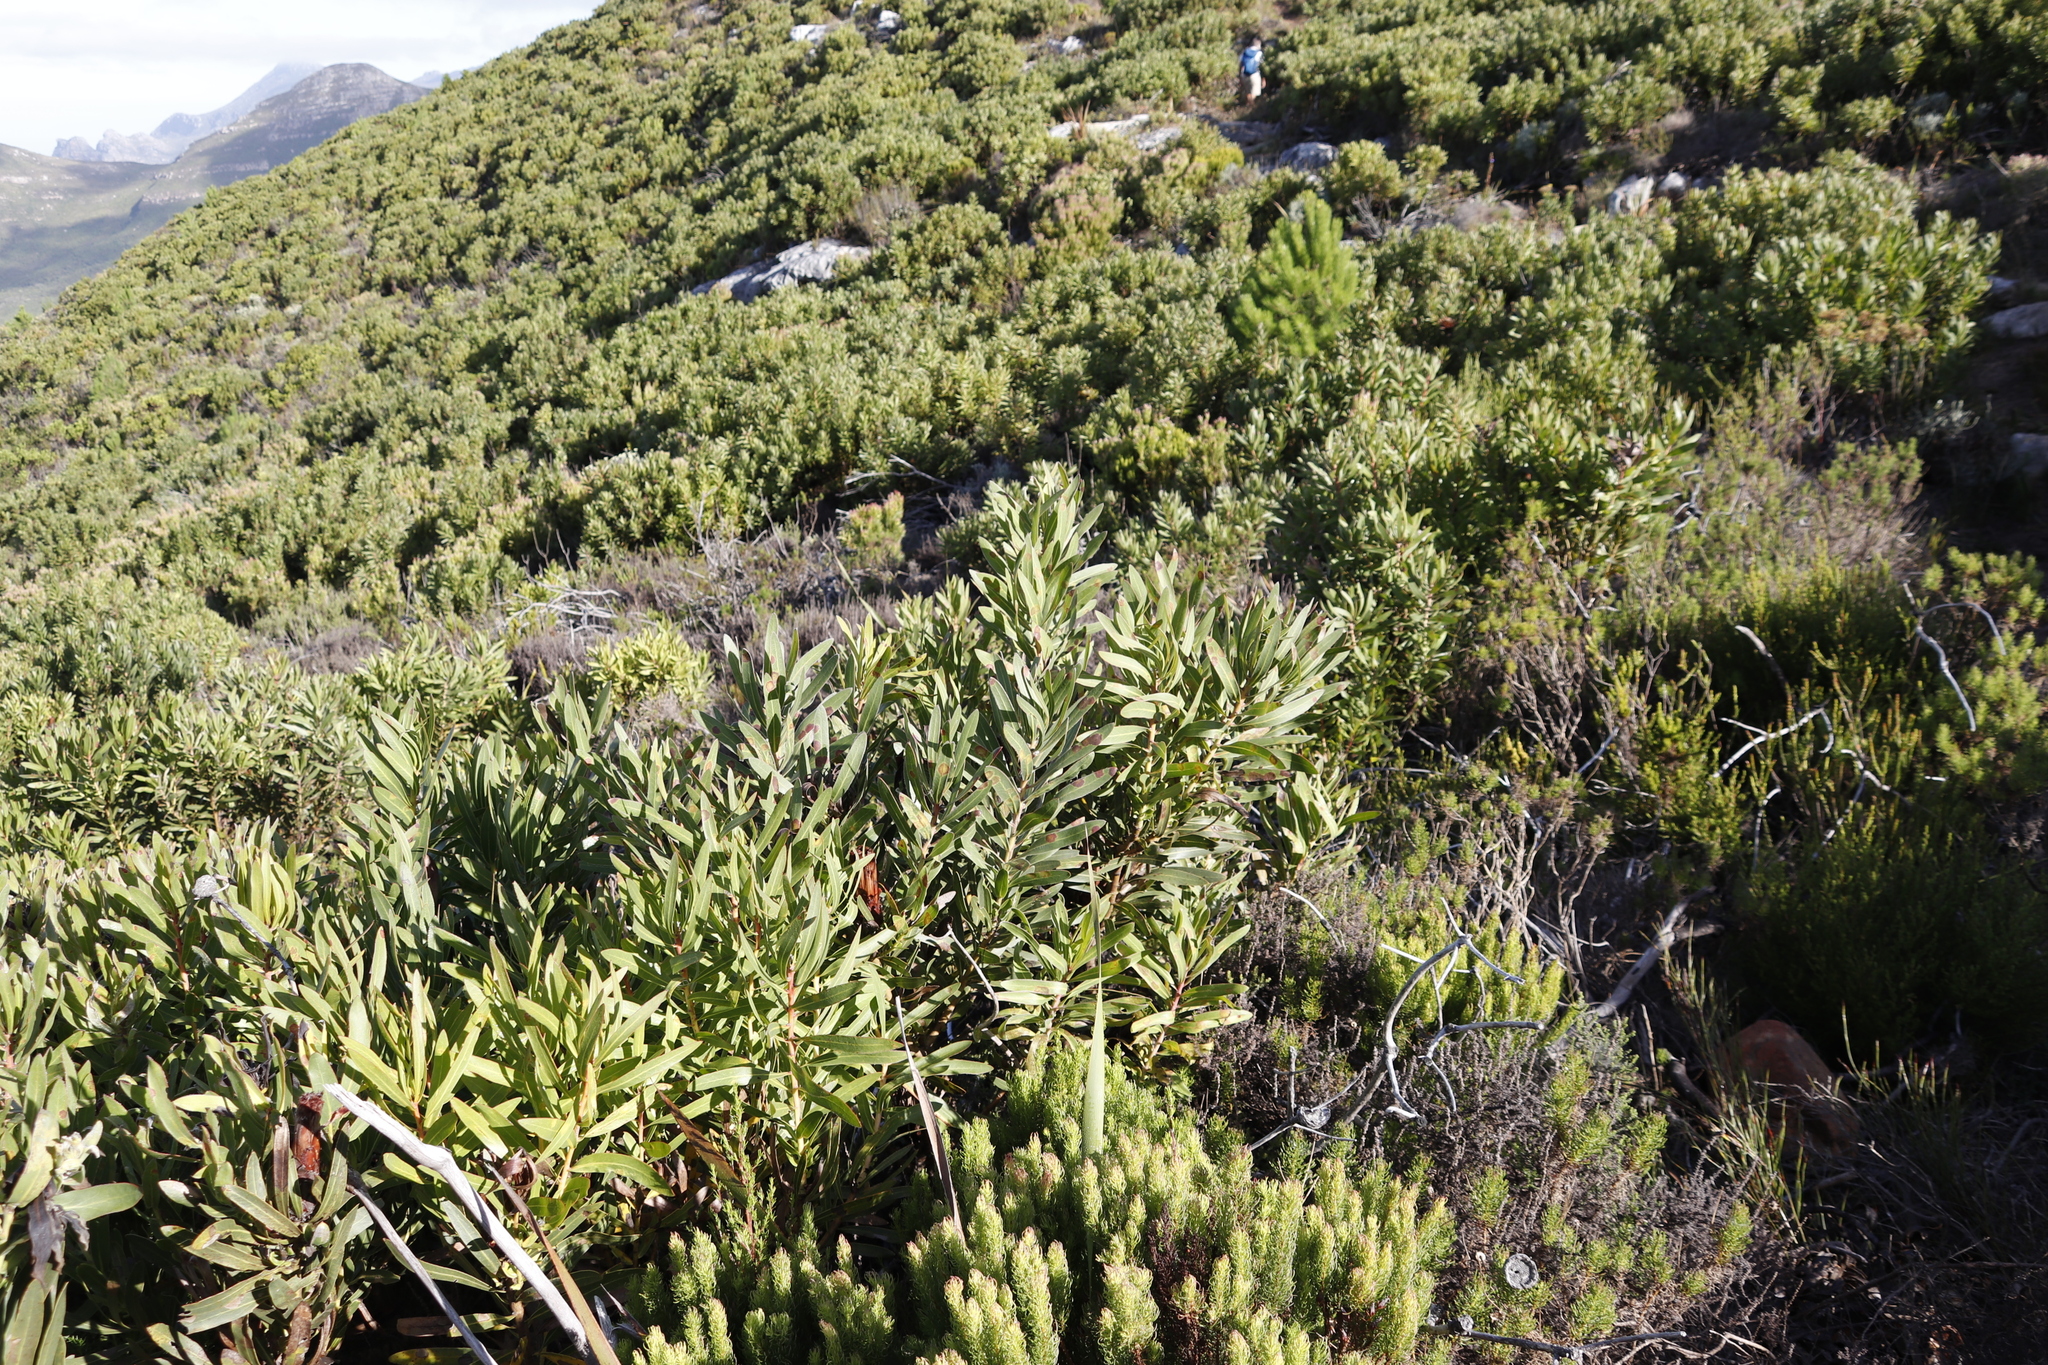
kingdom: Plantae
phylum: Tracheophyta
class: Magnoliopsida
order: Proteales
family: Proteaceae
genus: Protea
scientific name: Protea lepidocarpodendron
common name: Black-bearded protea
